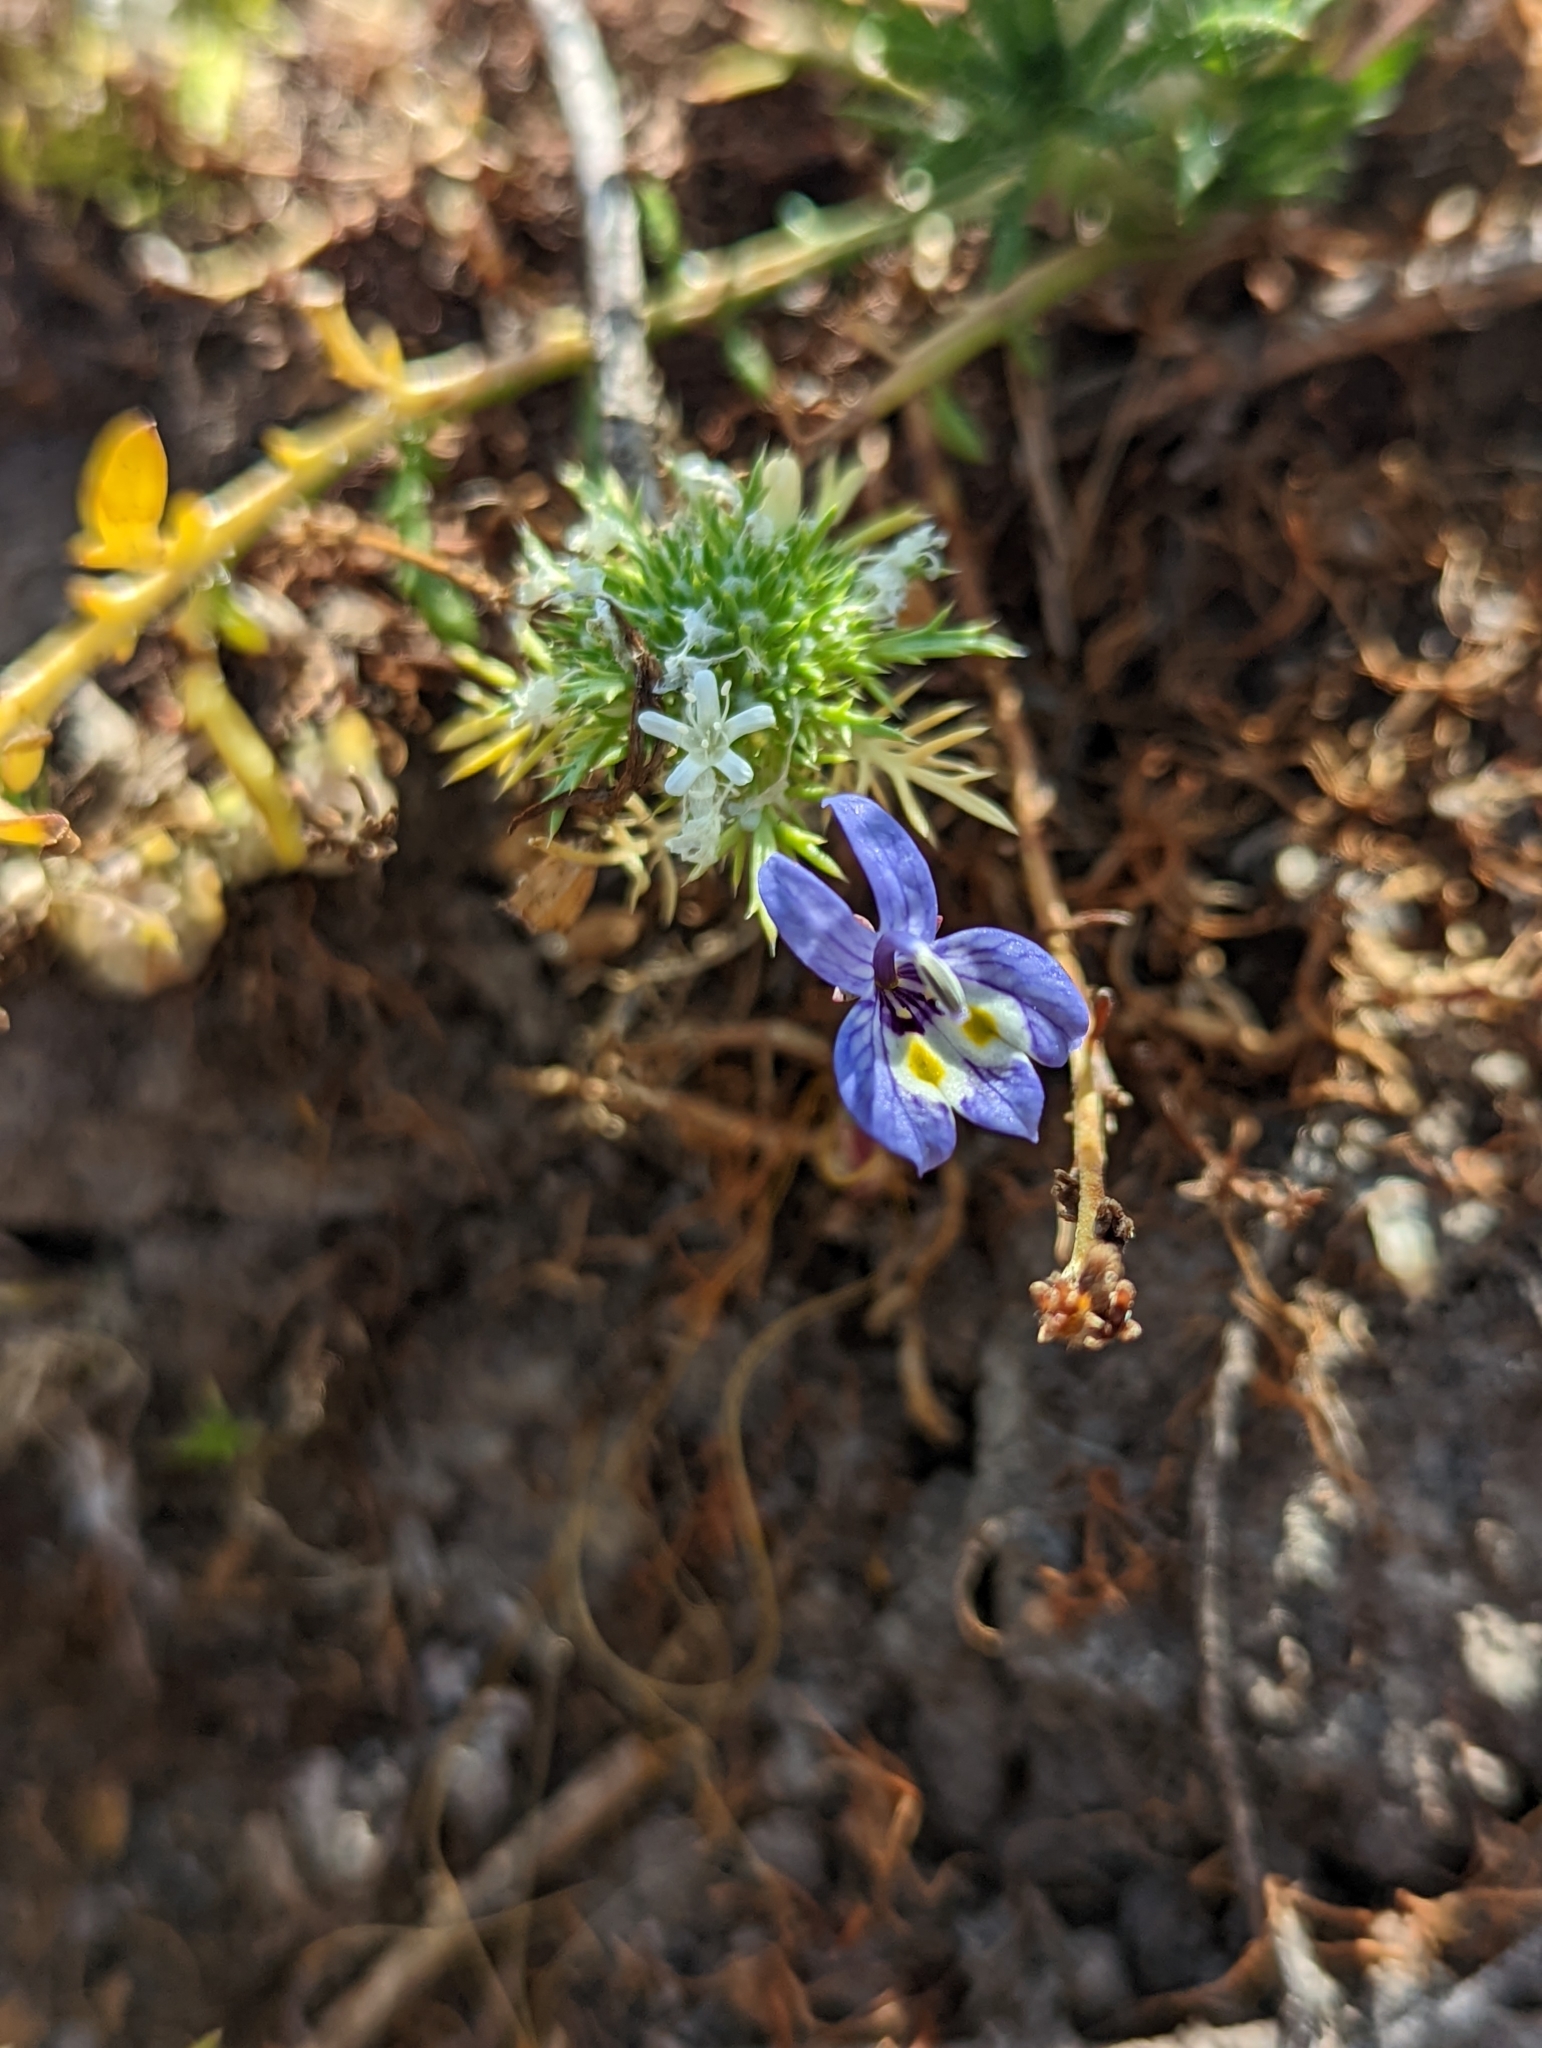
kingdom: Plantae
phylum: Tracheophyta
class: Magnoliopsida
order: Asterales
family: Campanulaceae
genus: Downingia
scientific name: Downingia insignis
